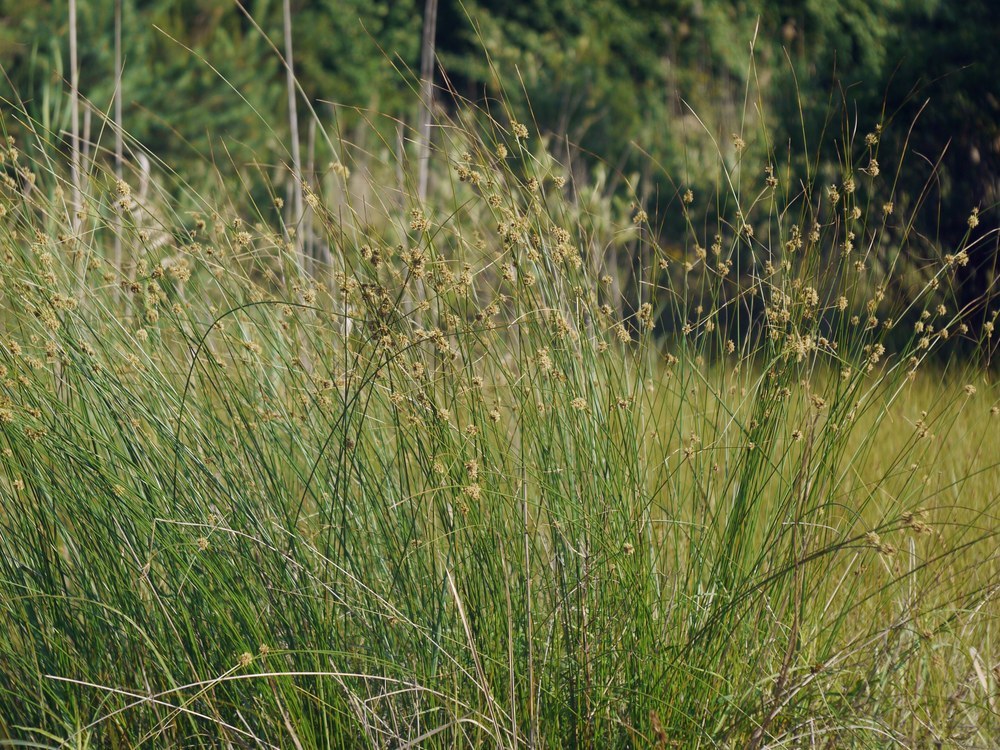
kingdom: Plantae
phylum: Tracheophyta
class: Liliopsida
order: Poales
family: Cyperaceae
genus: Scirpoides
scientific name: Scirpoides holoschoenus
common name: Round-headed club-rush
